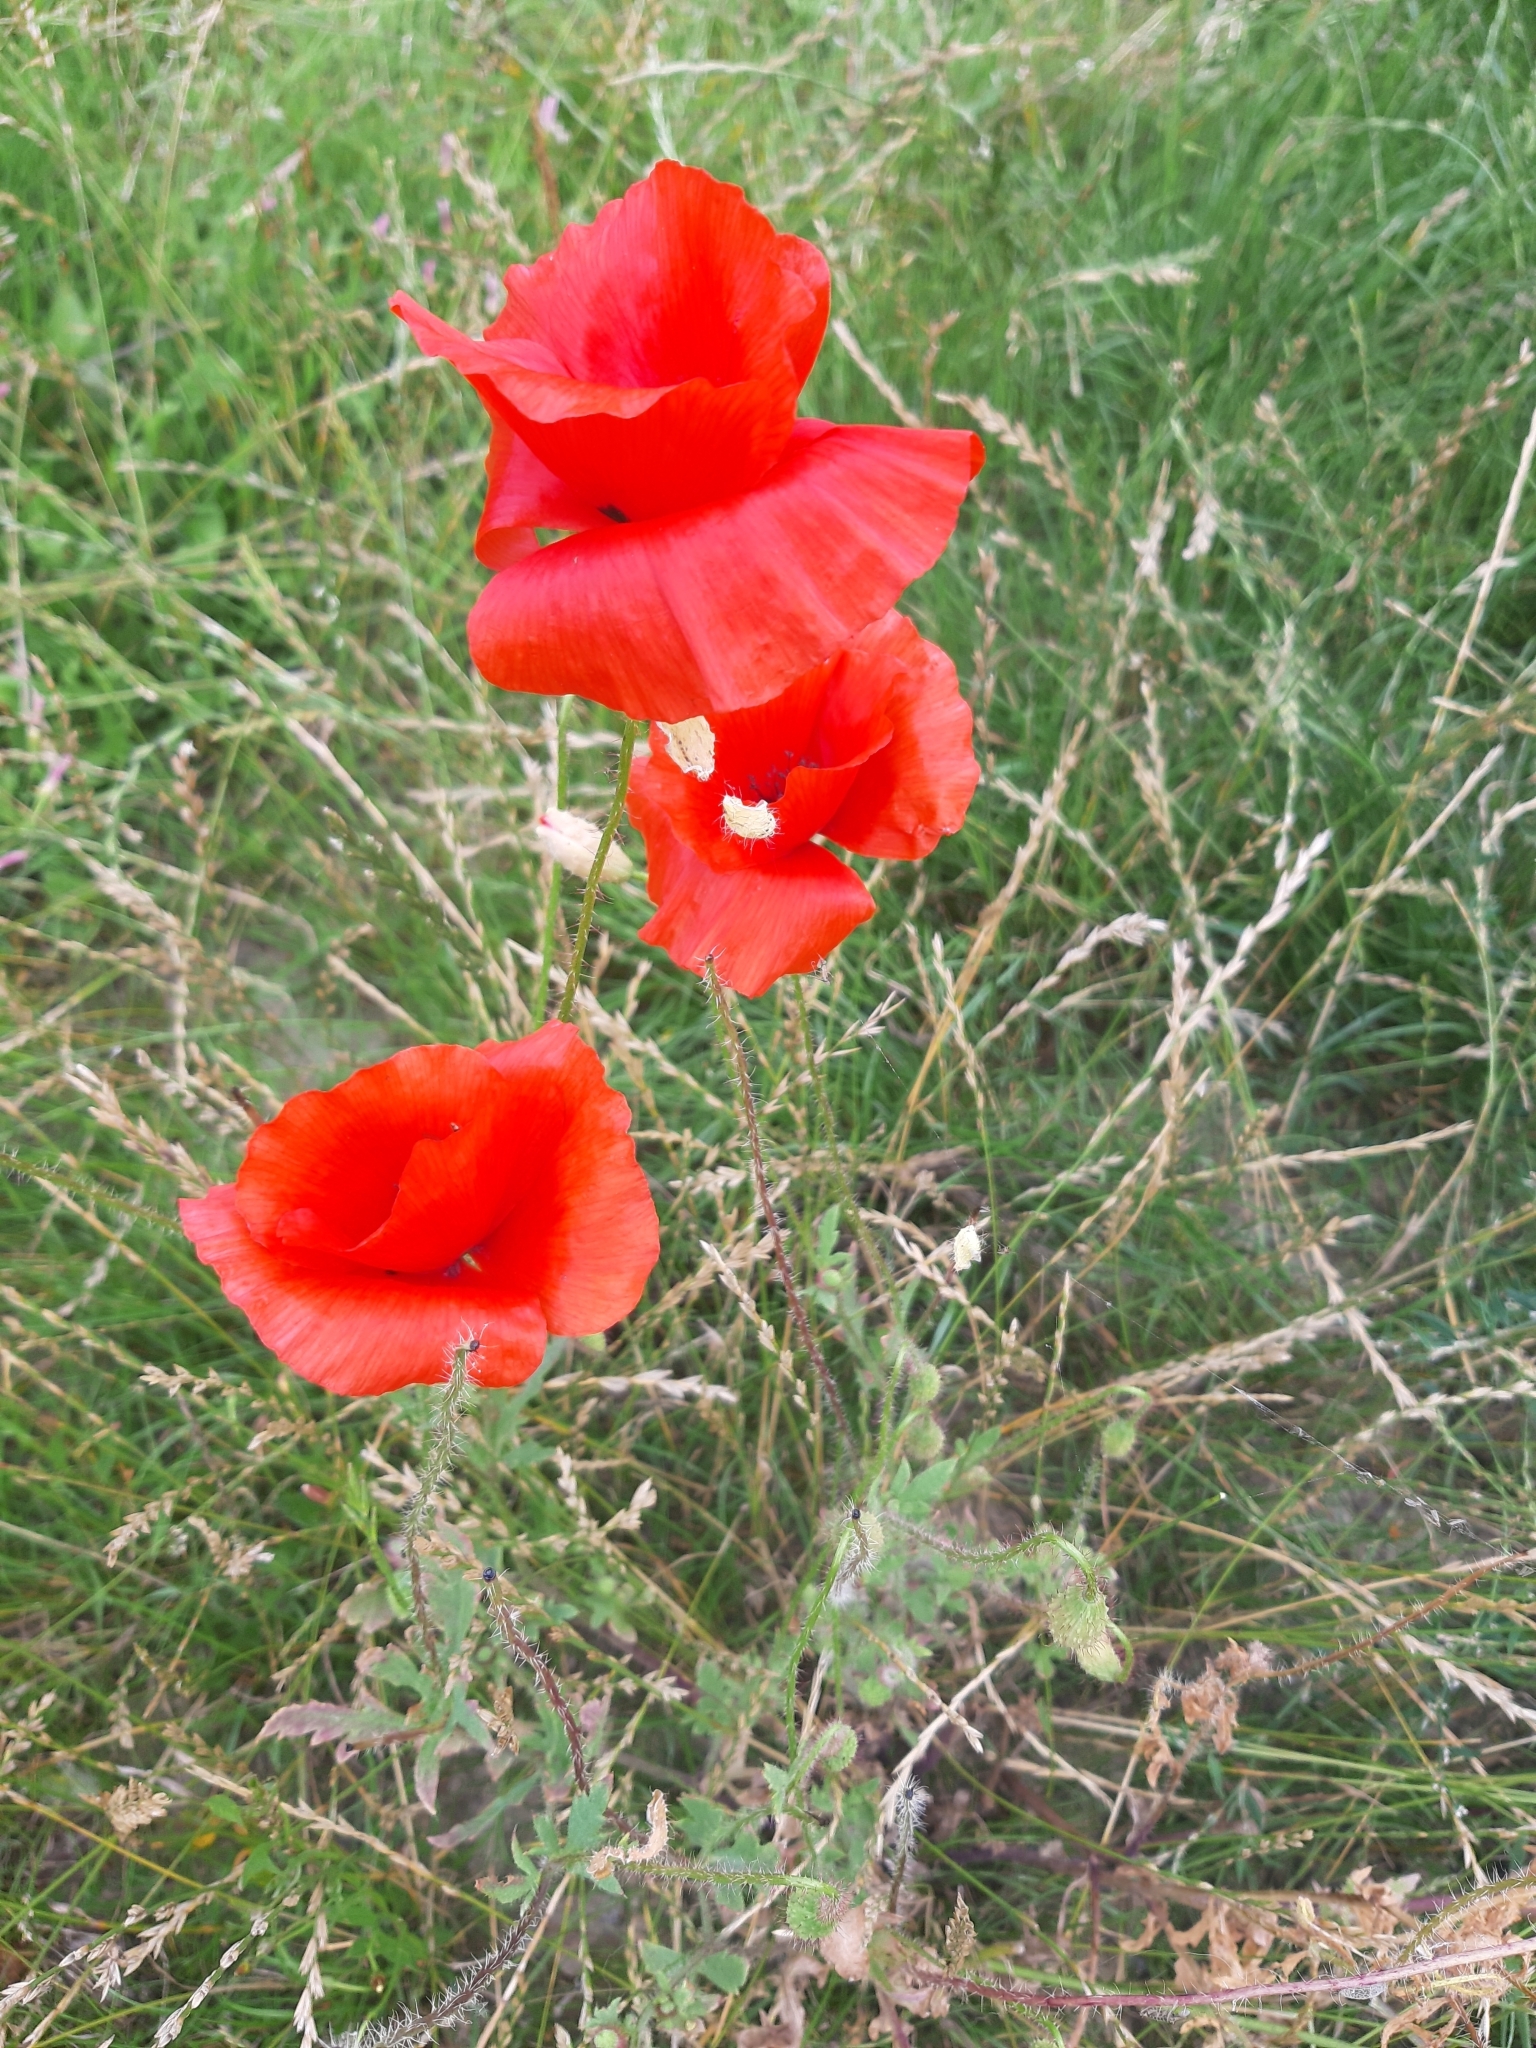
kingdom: Plantae
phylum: Tracheophyta
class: Magnoliopsida
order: Ranunculales
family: Papaveraceae
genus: Papaver
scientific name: Papaver rhoeas
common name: Corn poppy
